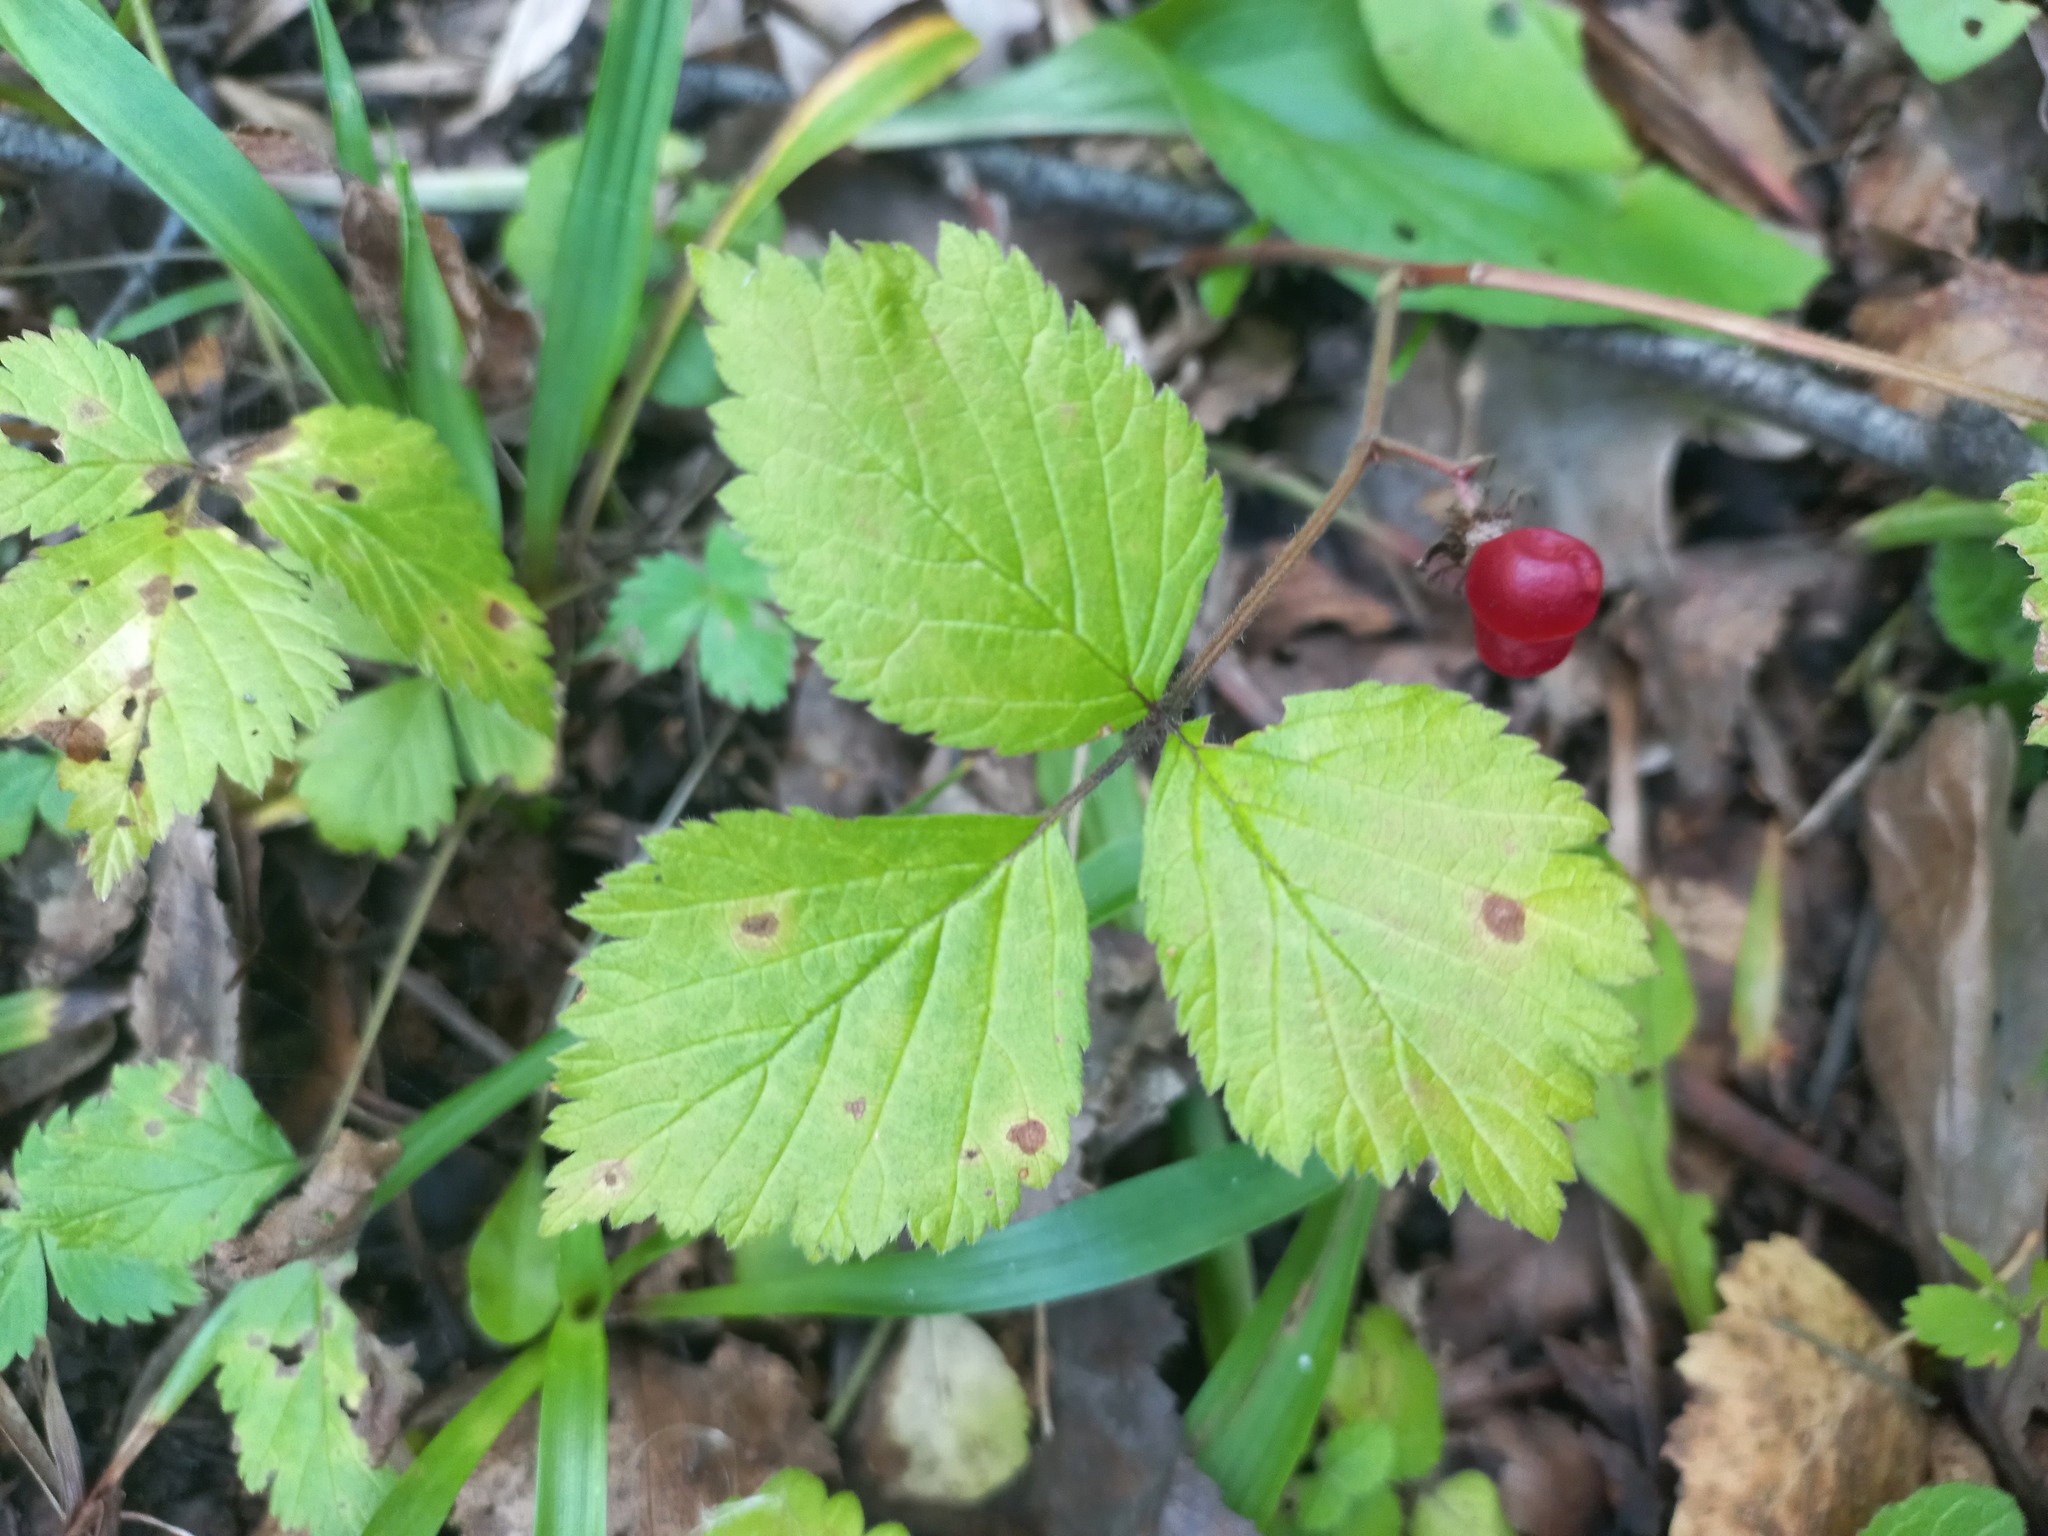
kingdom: Plantae
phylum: Tracheophyta
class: Magnoliopsida
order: Rosales
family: Rosaceae
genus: Rubus
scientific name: Rubus saxatilis
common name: Stone bramble
